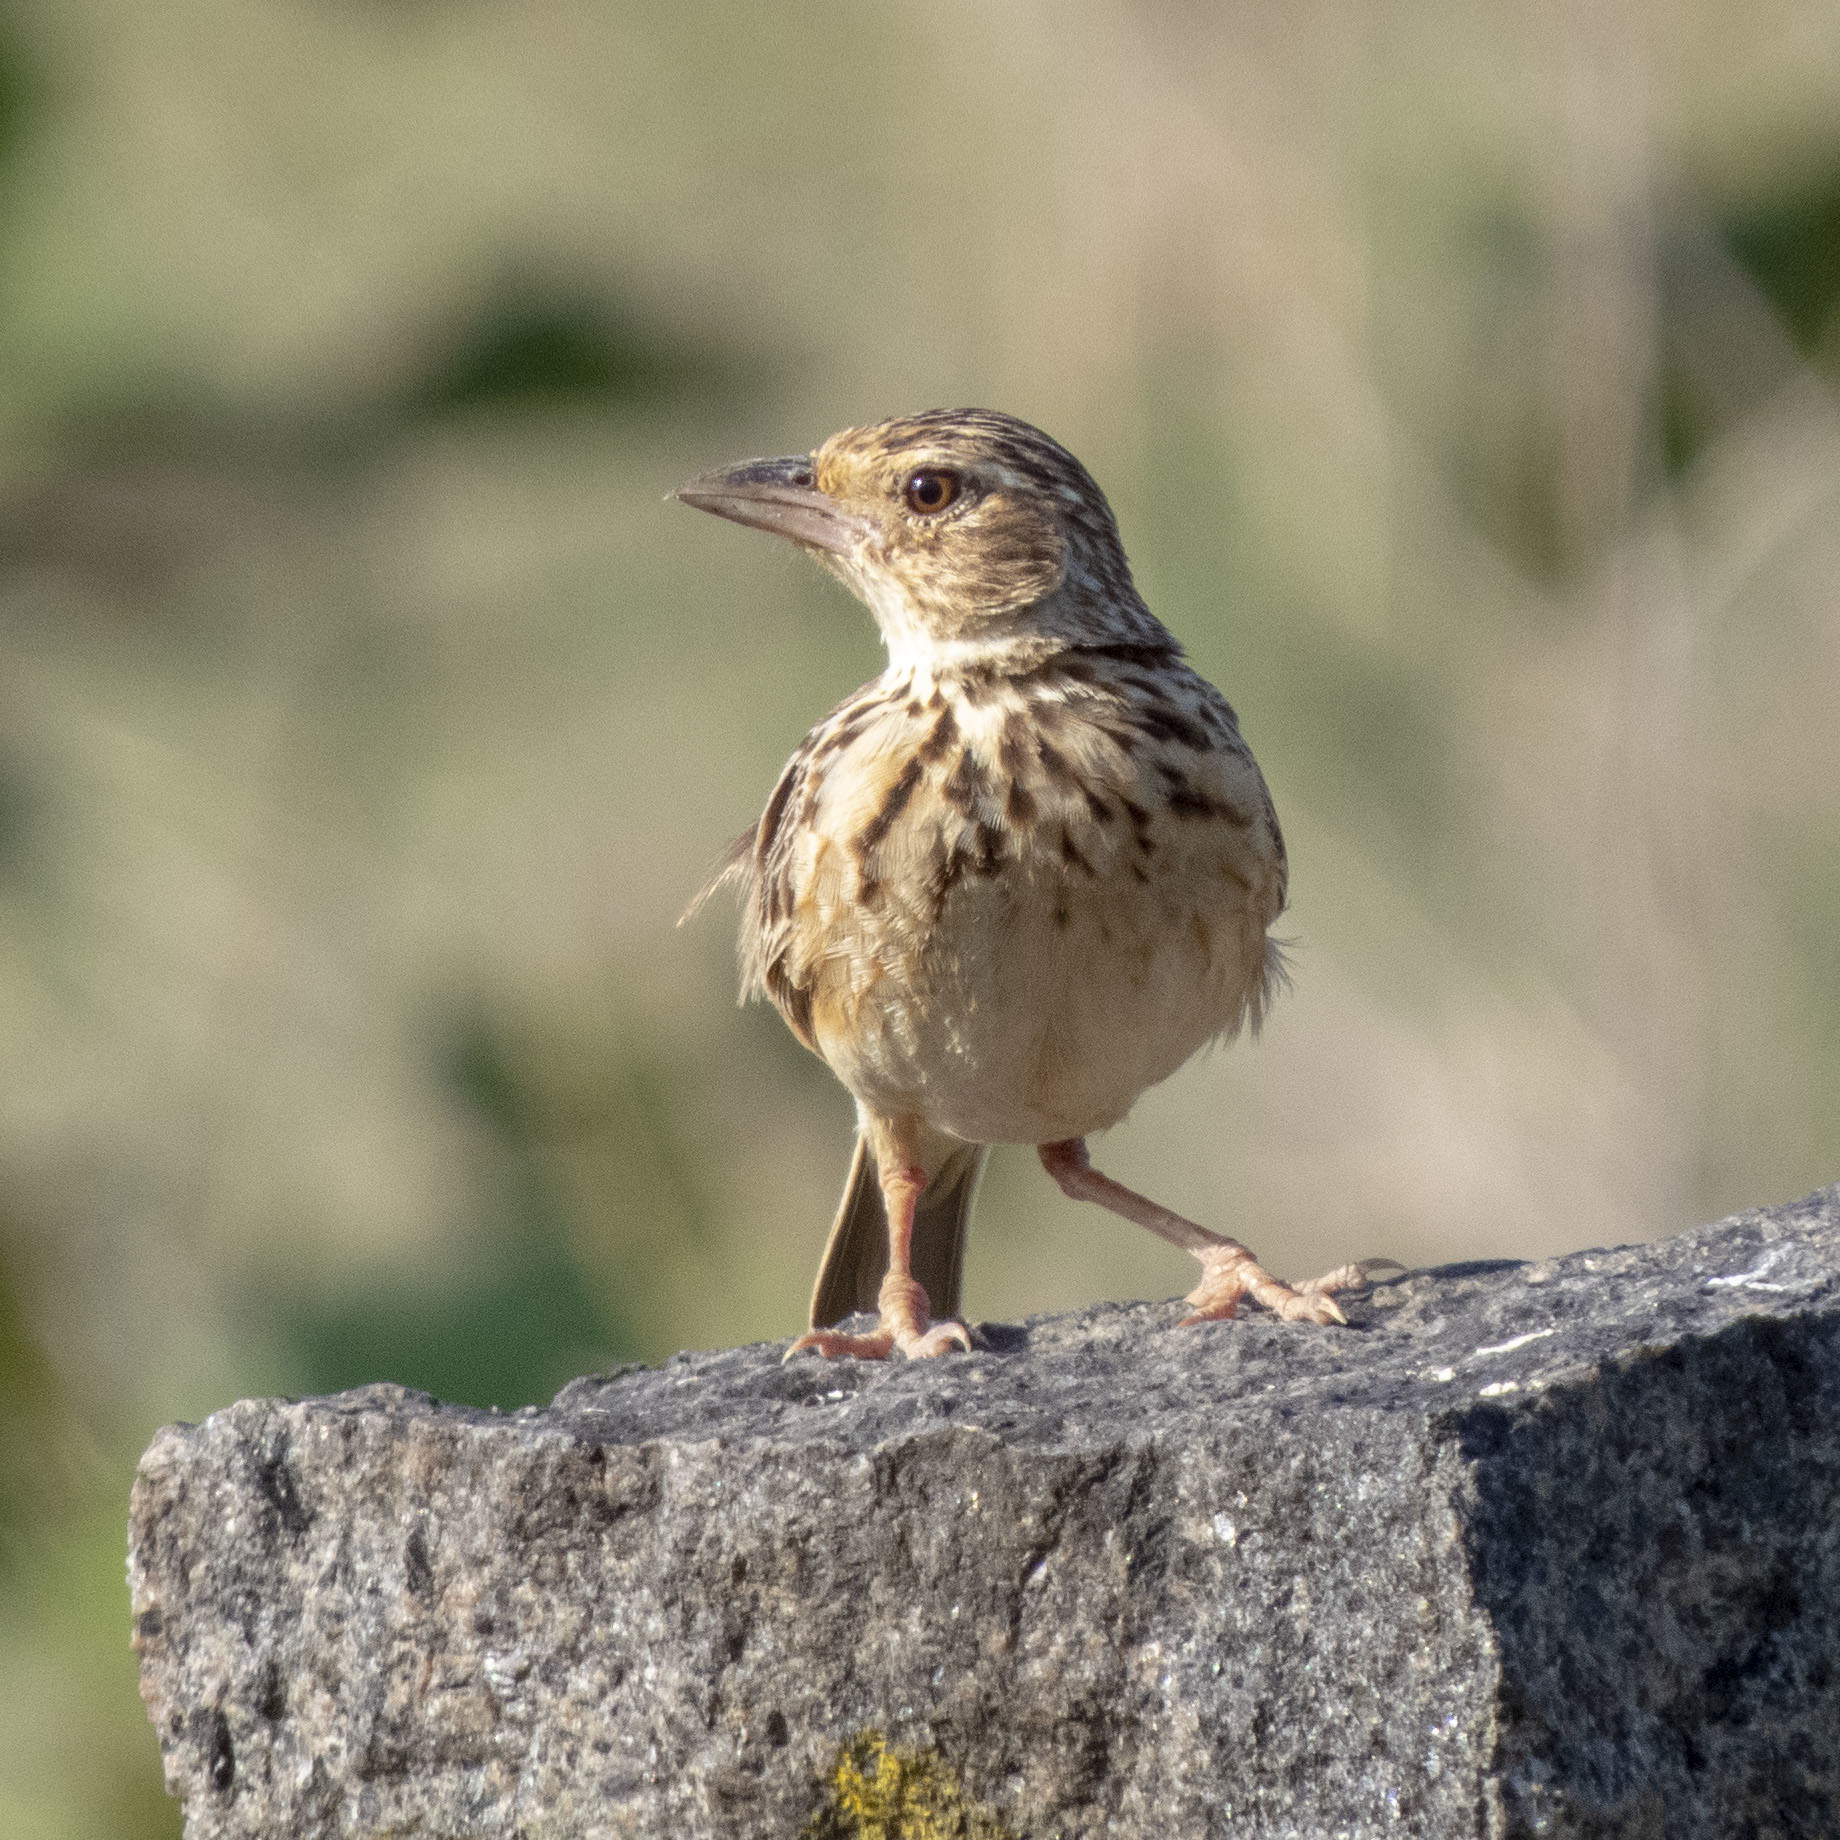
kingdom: Animalia
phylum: Chordata
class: Aves
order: Passeriformes
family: Alaudidae
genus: Mirafra
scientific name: Mirafra affinis
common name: Jerdon's bushlark
